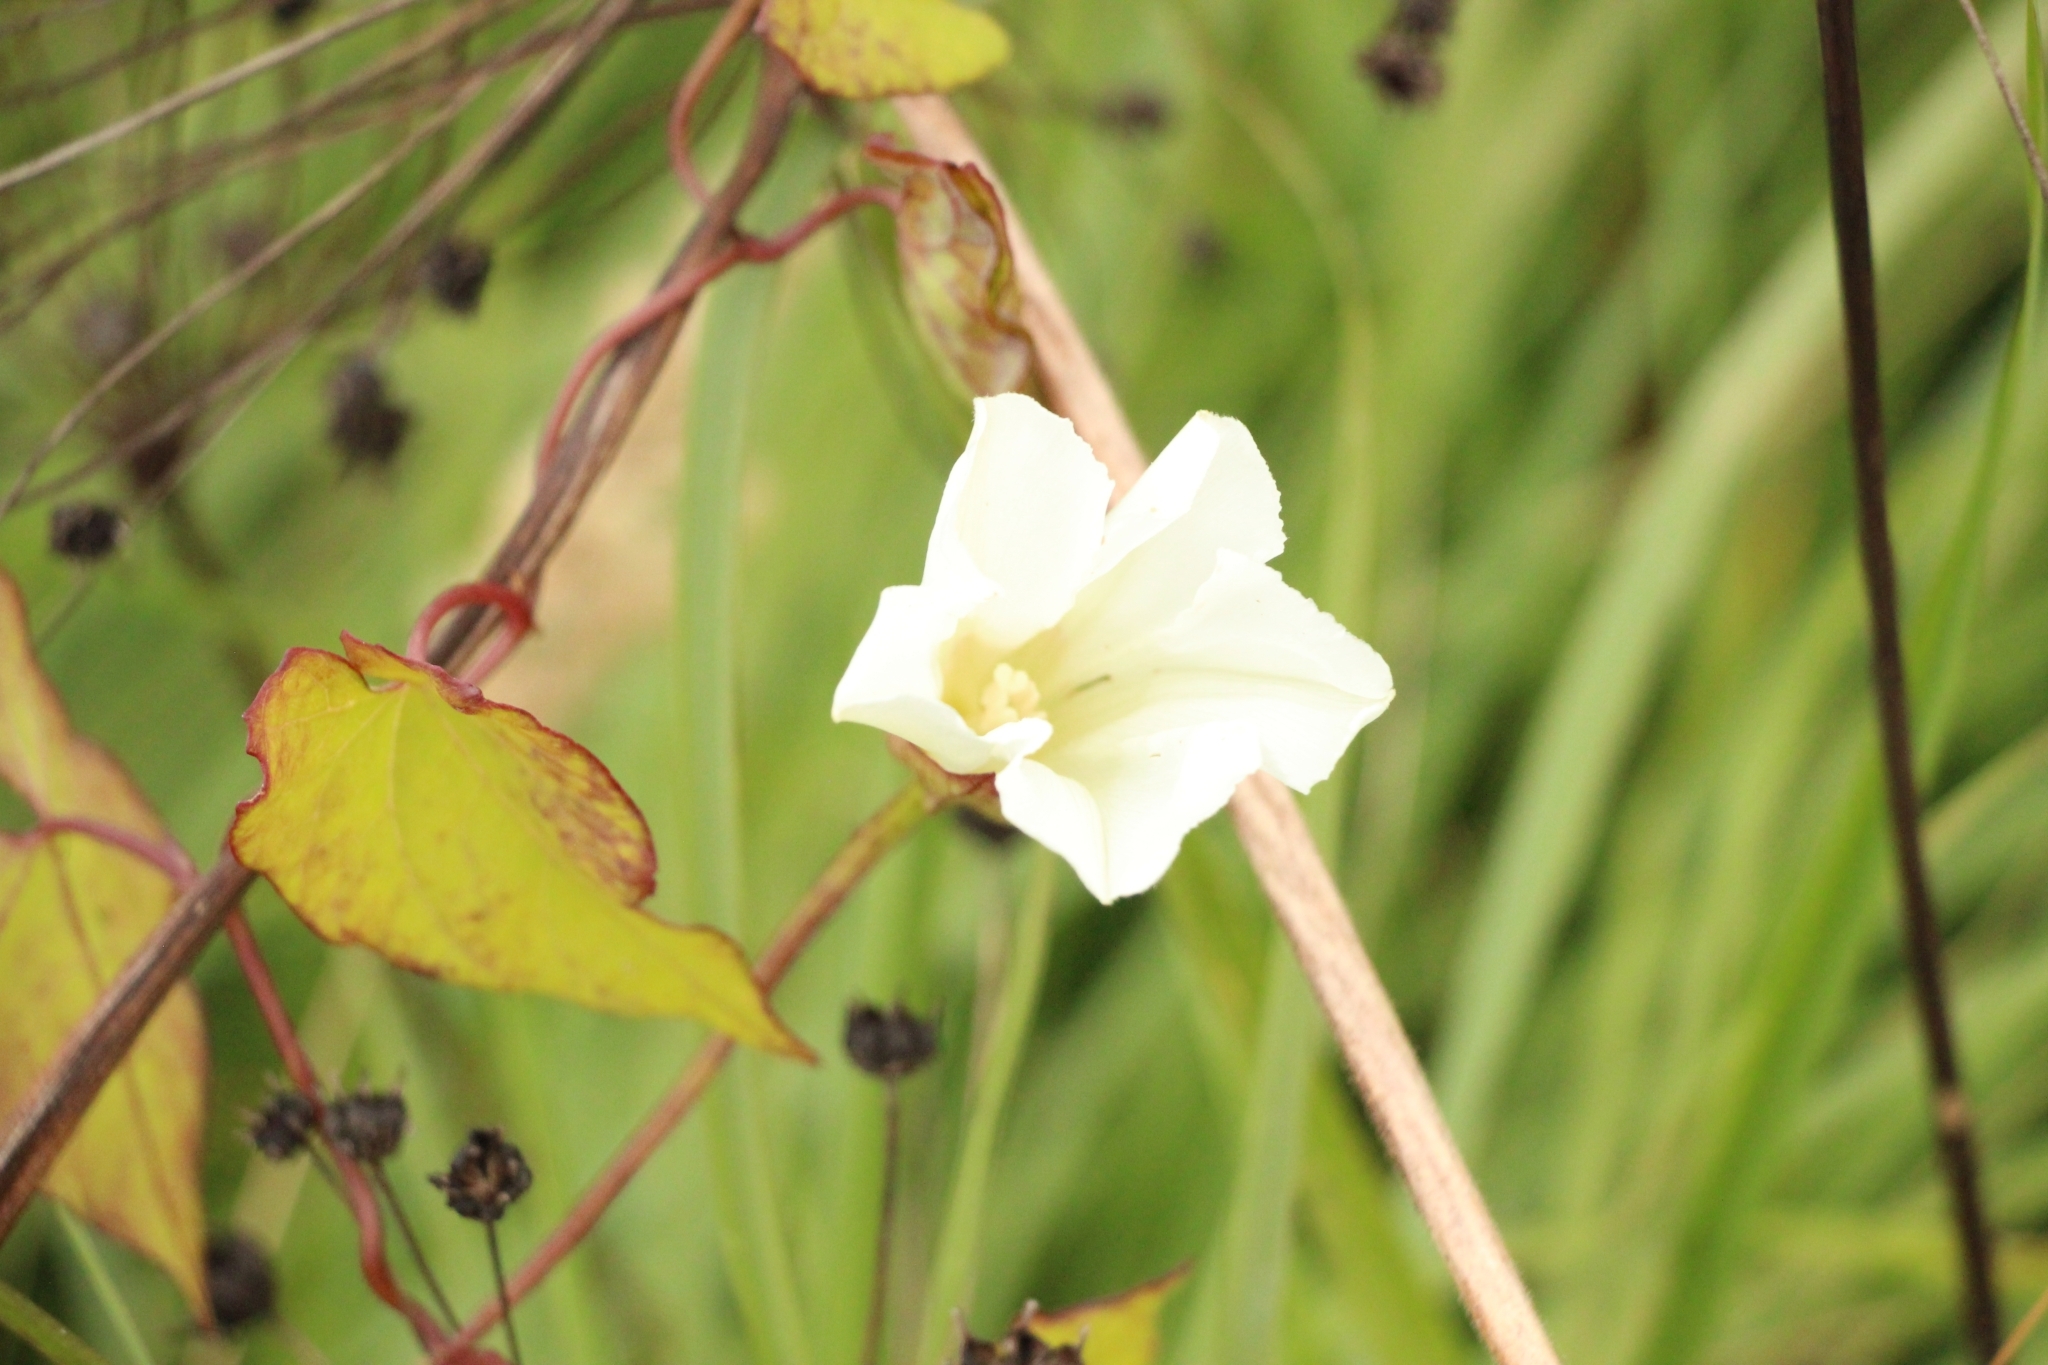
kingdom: Plantae
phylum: Tracheophyta
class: Magnoliopsida
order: Solanales
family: Convolvulaceae
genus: Calystegia
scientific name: Calystegia sepium
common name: Hedge bindweed
